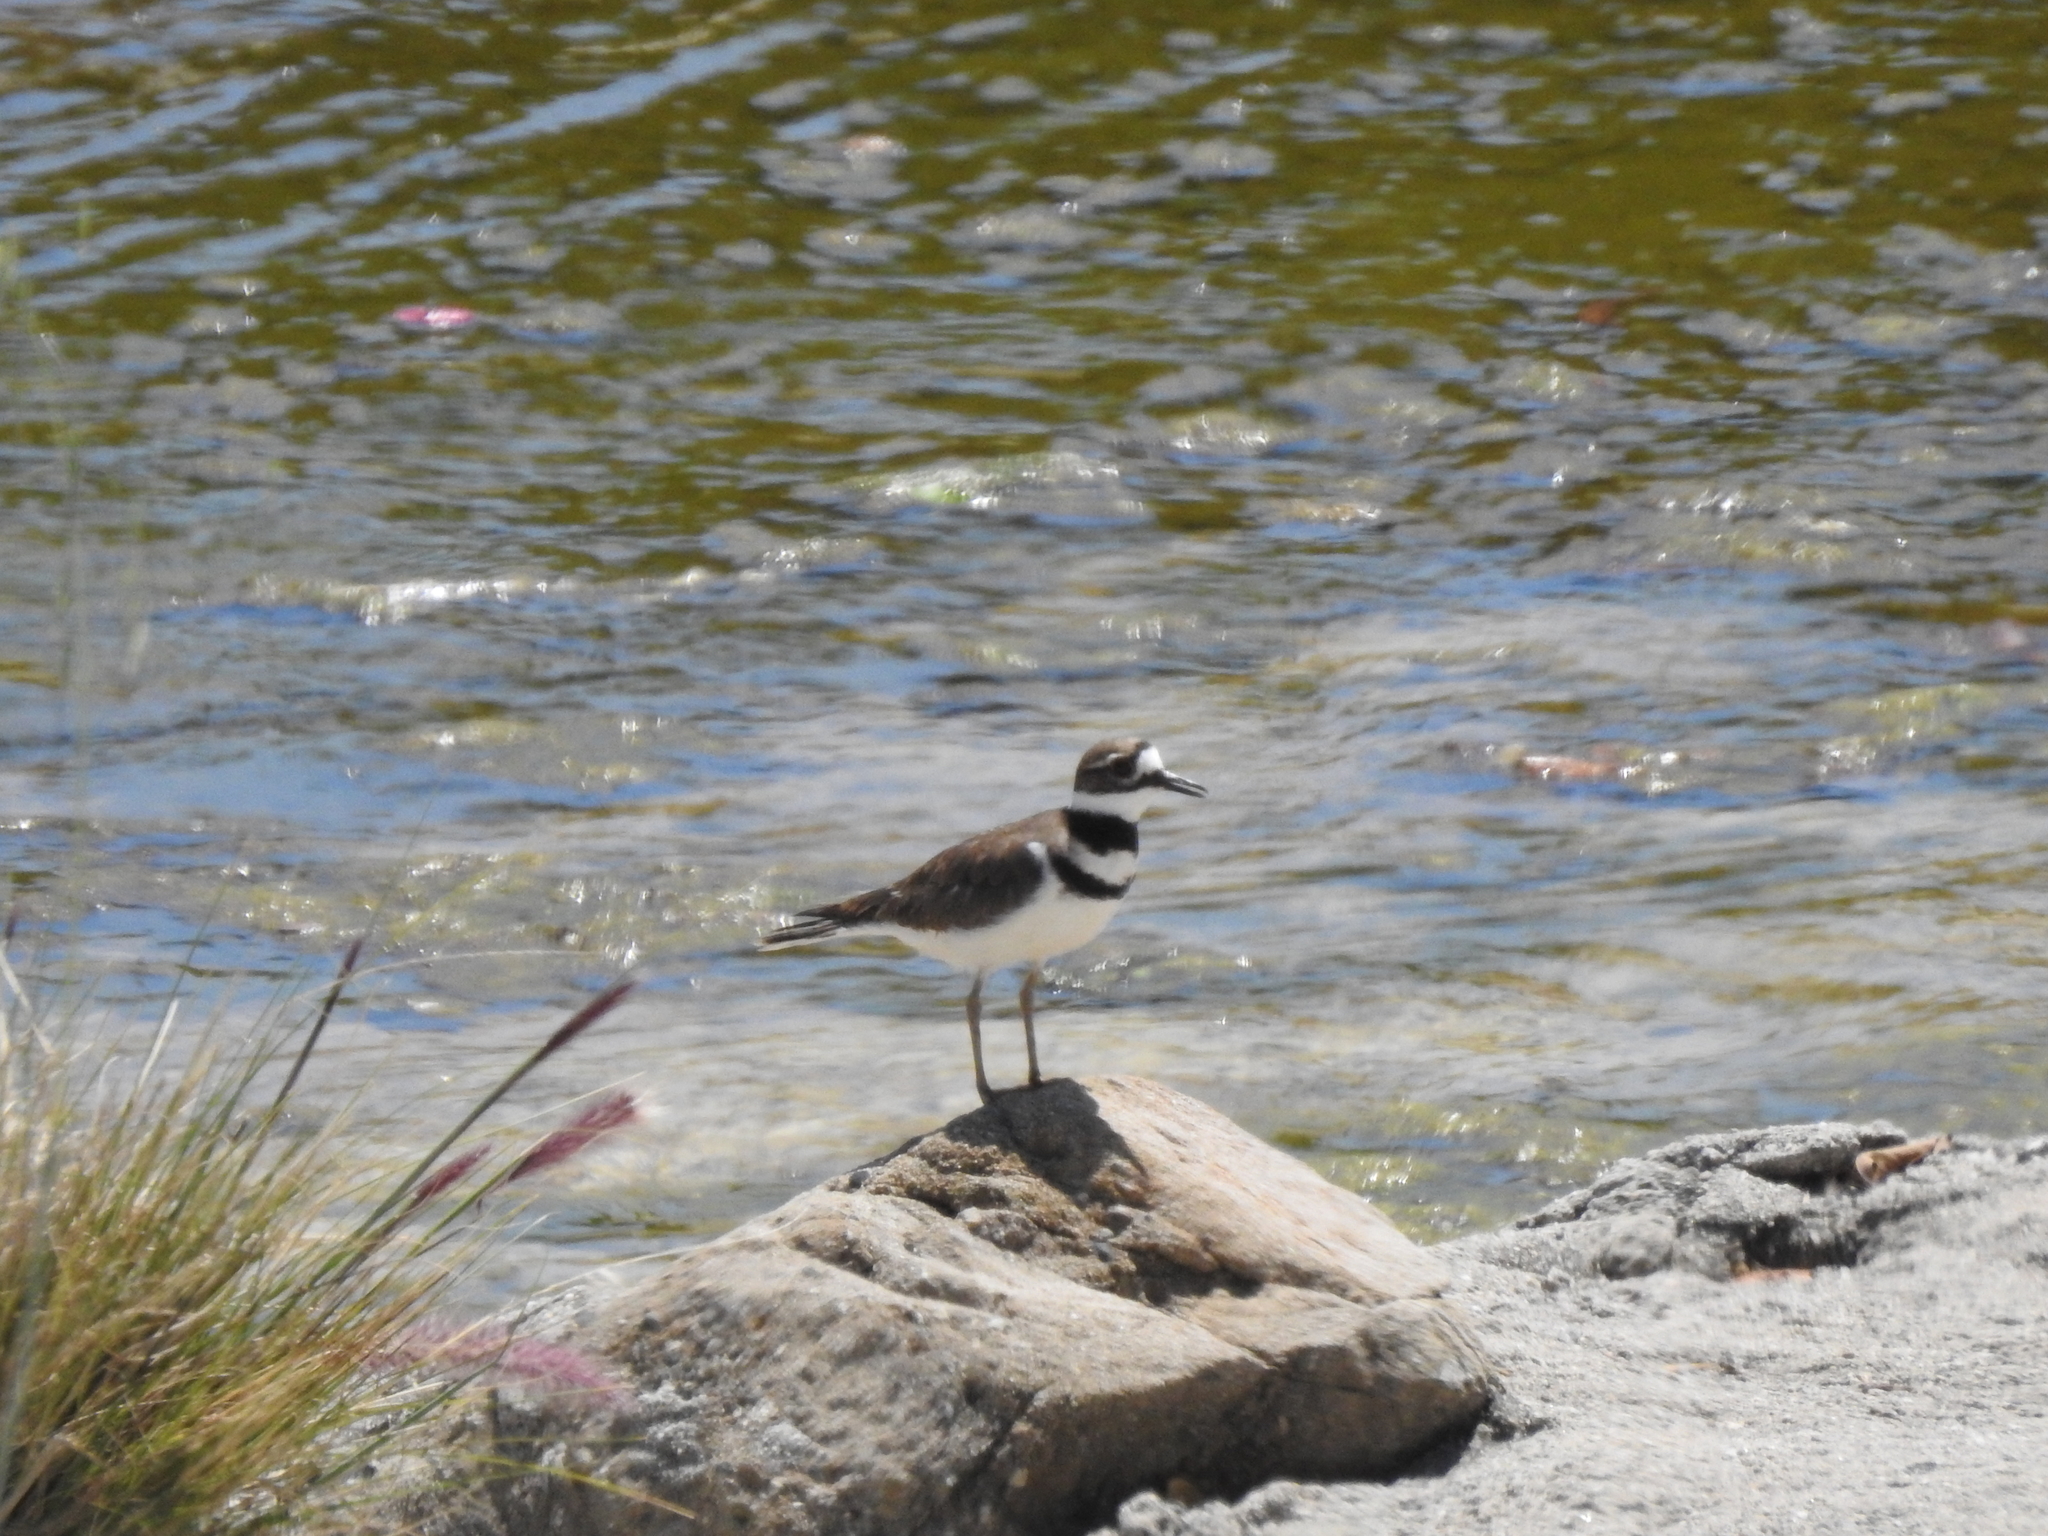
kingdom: Animalia
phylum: Chordata
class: Aves
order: Charadriiformes
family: Charadriidae
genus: Charadrius
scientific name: Charadrius vociferus
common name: Killdeer
